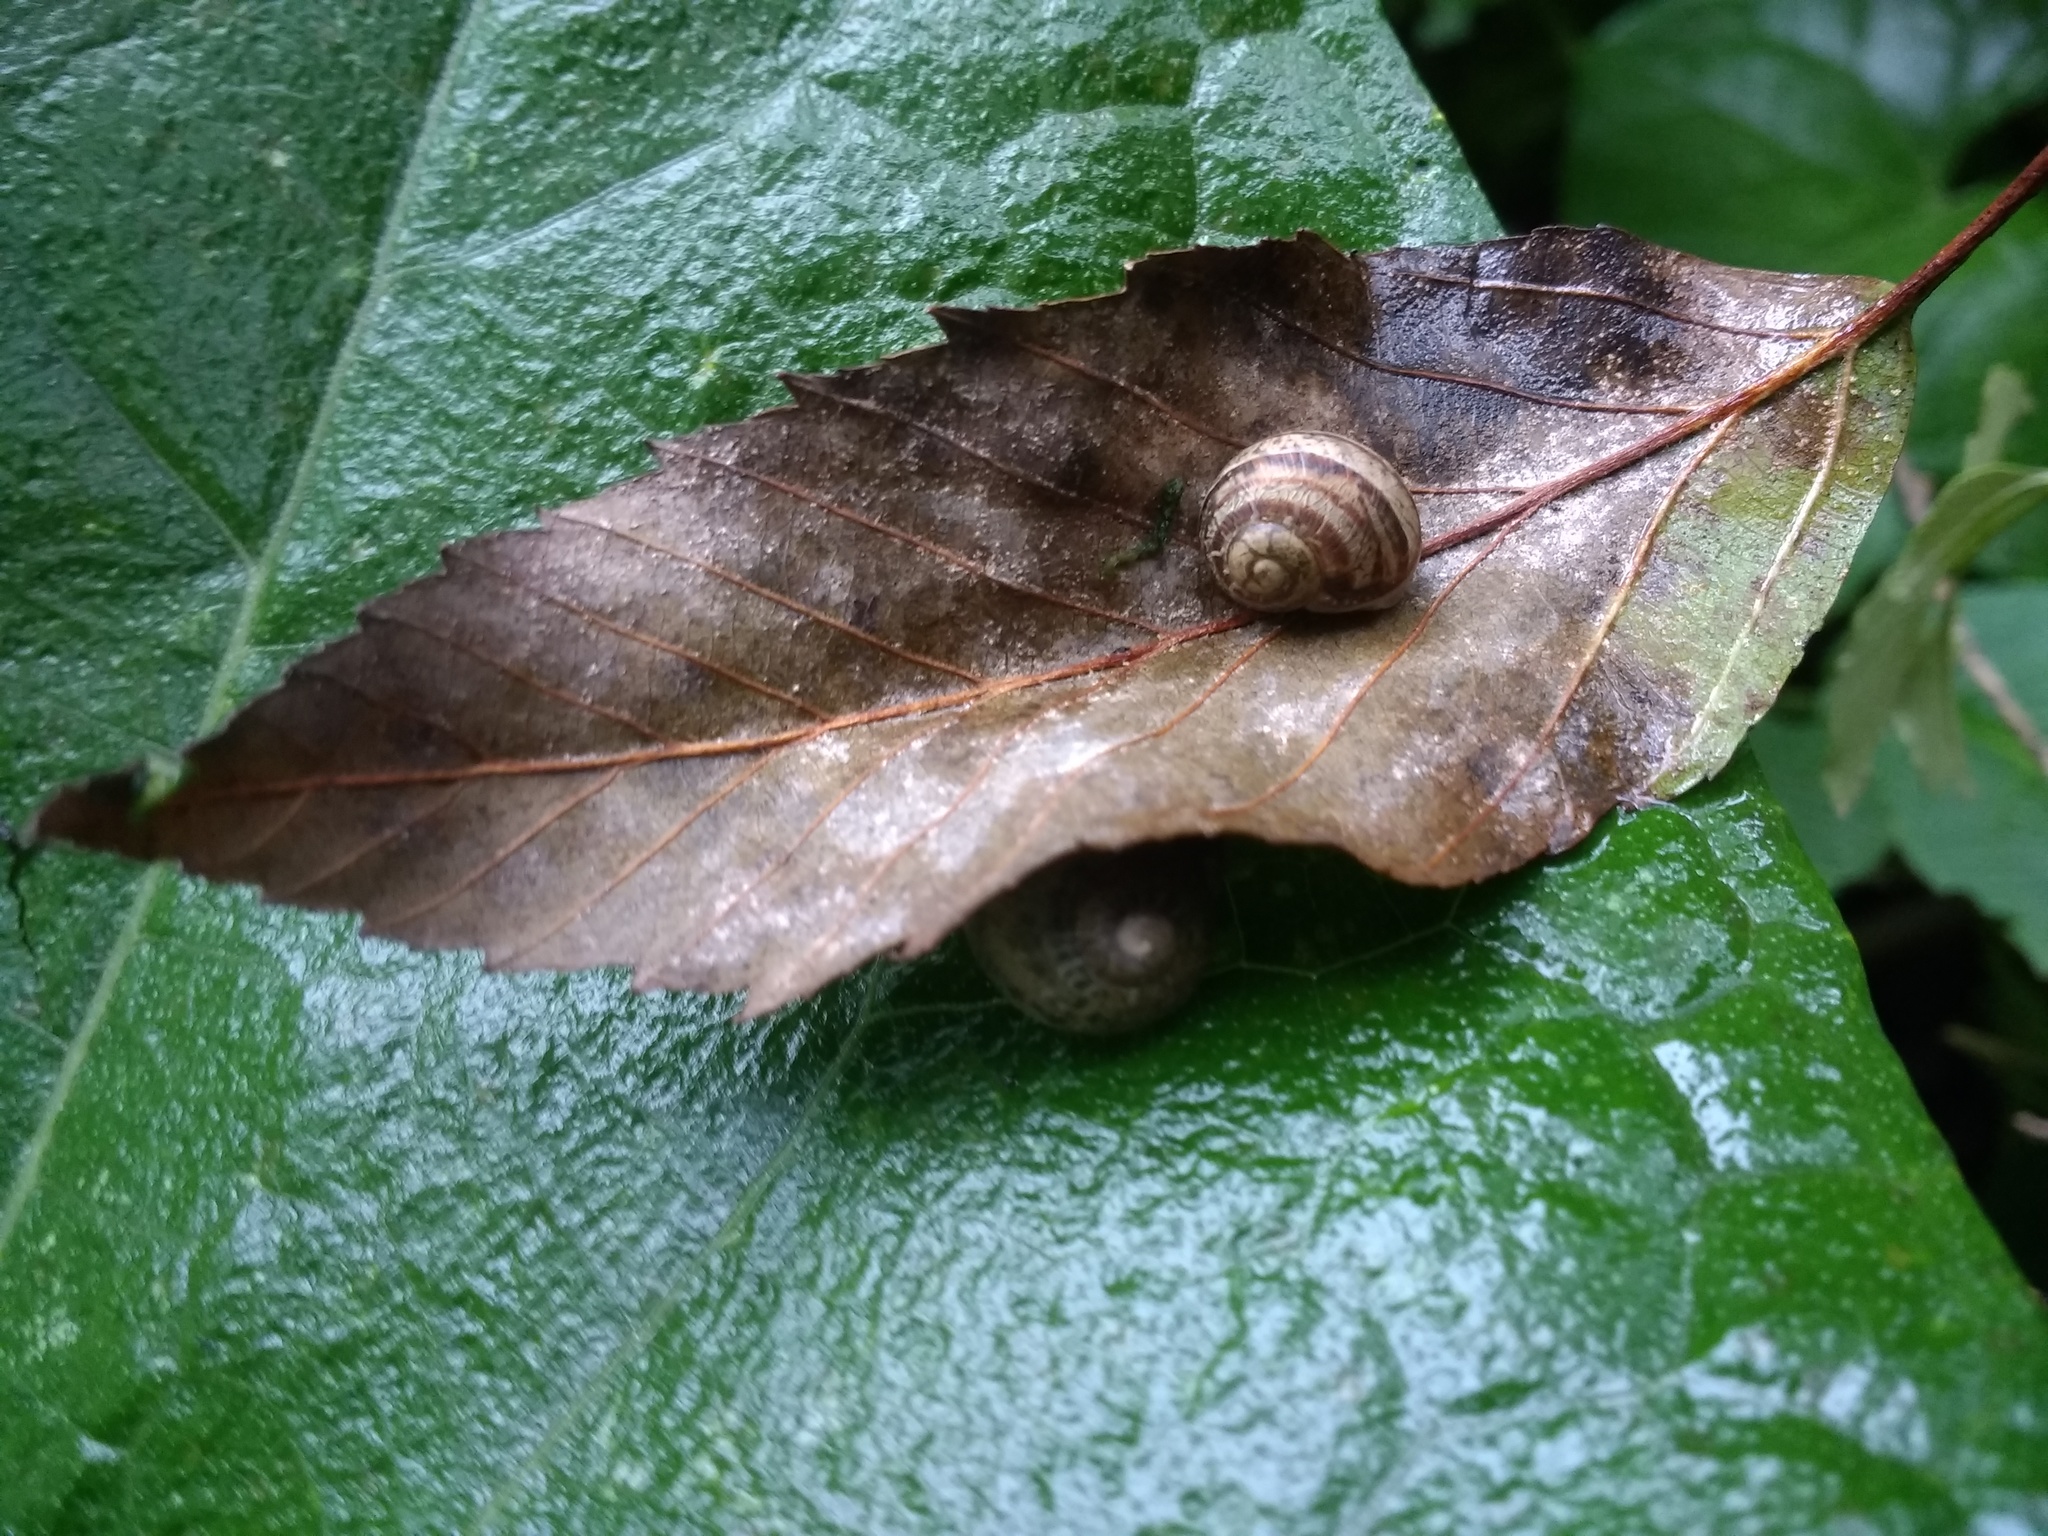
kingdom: Animalia
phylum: Mollusca
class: Gastropoda
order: Stylommatophora
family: Helicidae
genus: Cornu
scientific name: Cornu aspersum
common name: Brown garden snail
